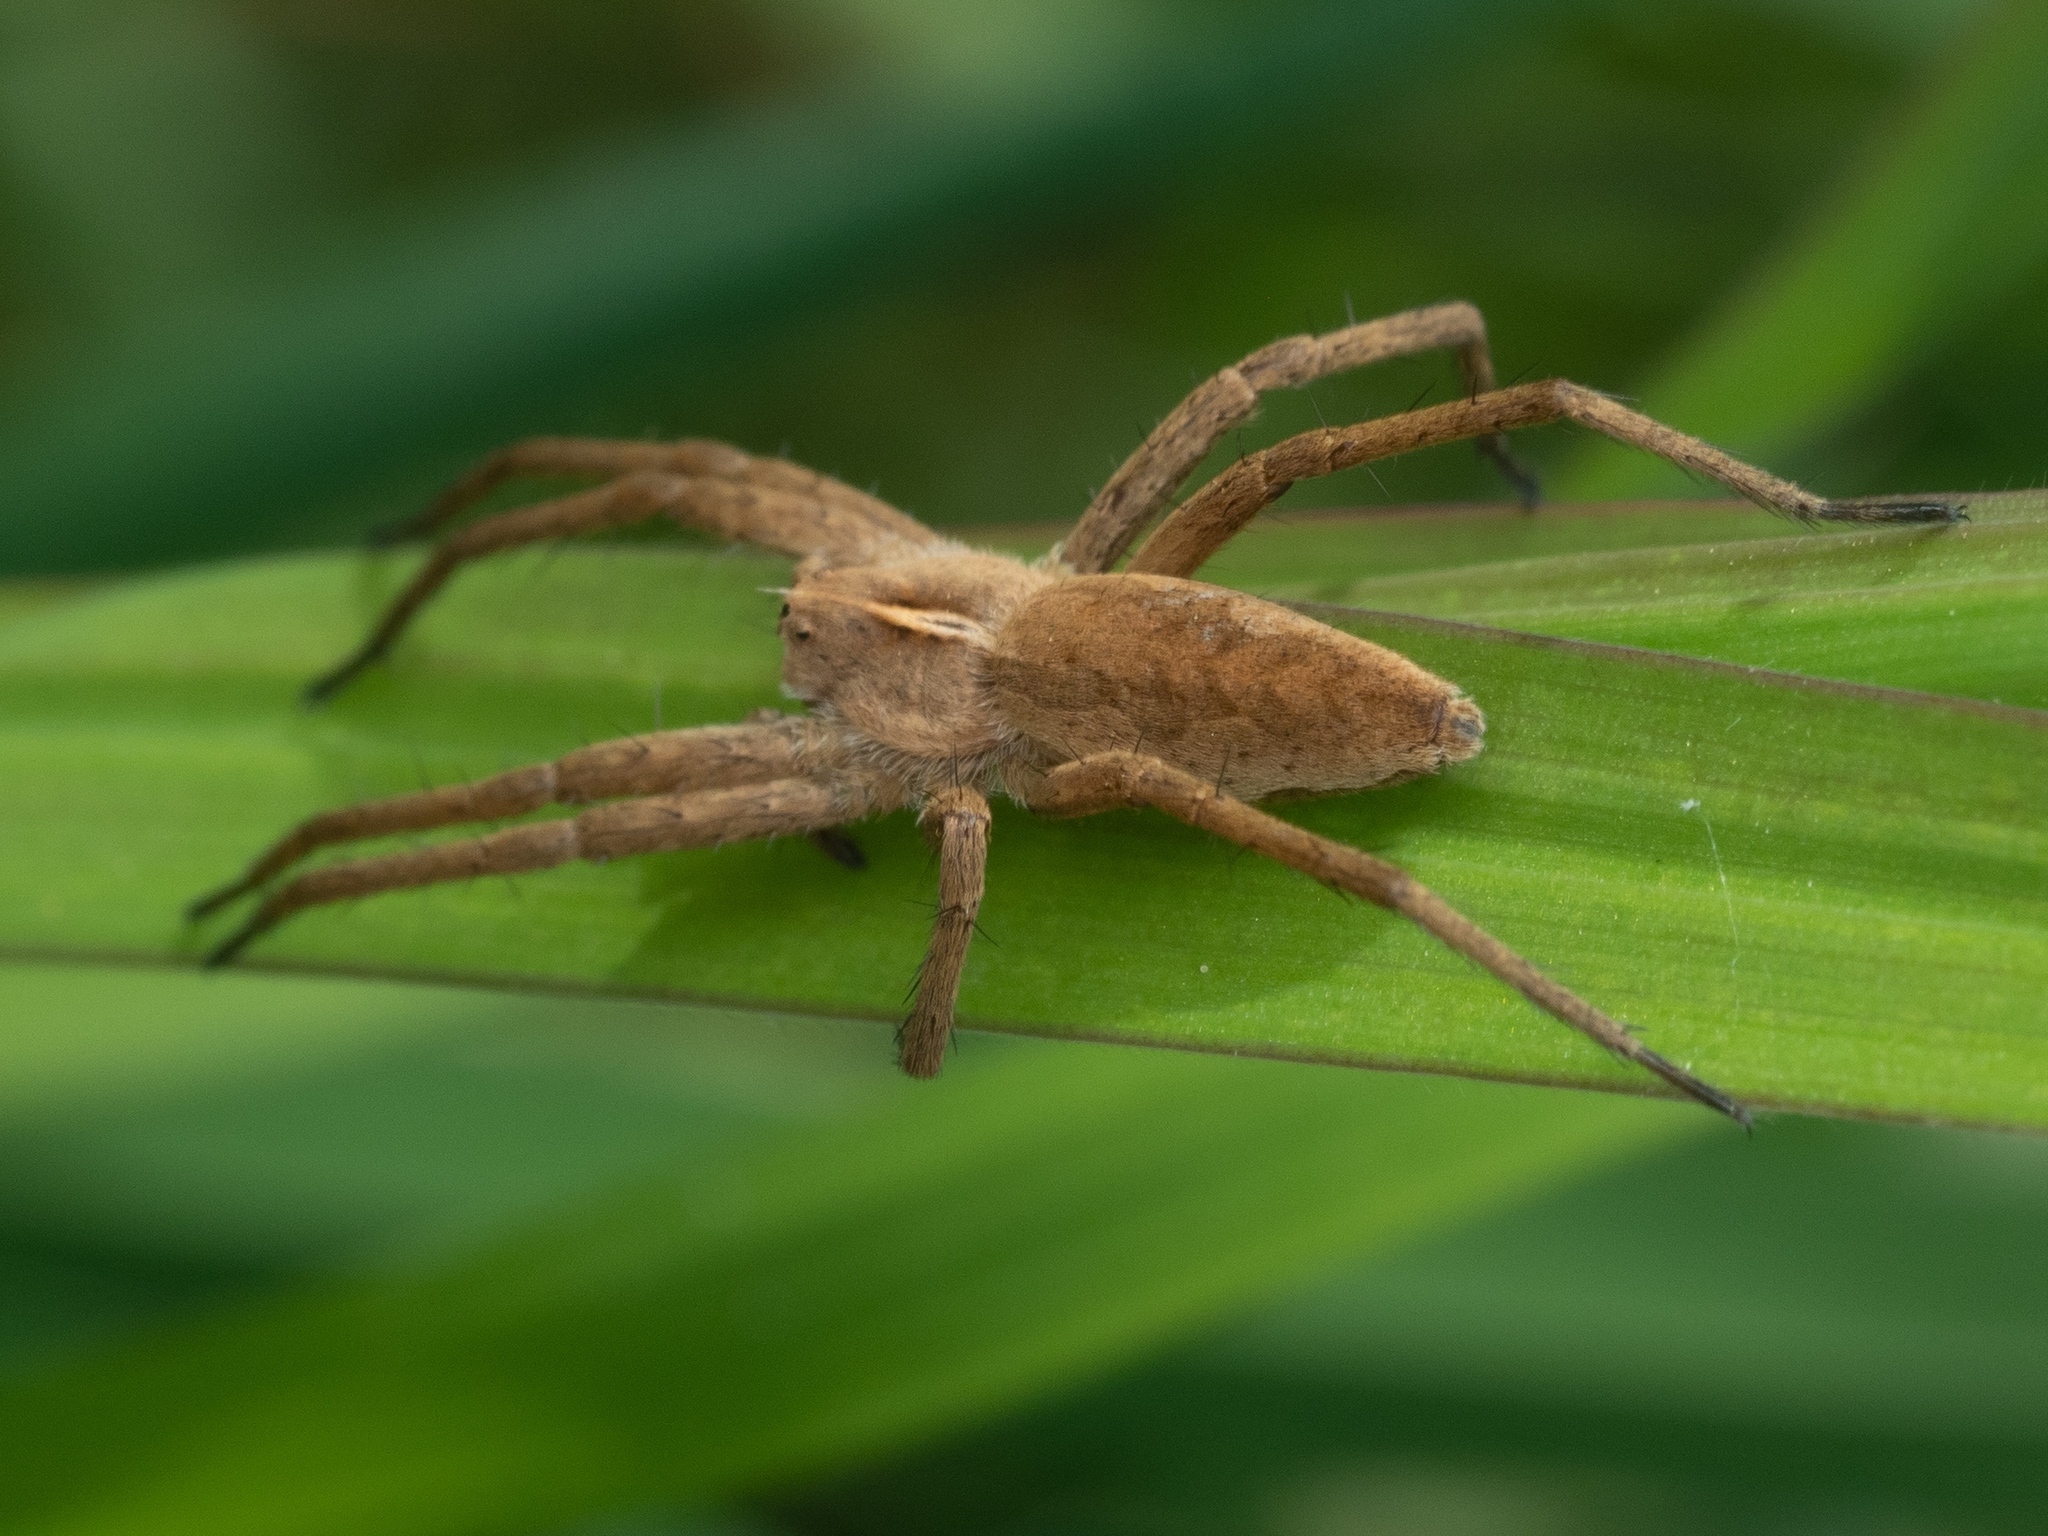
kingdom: Animalia
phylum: Arthropoda
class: Arachnida
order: Araneae
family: Pisauridae
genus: Pisaura
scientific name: Pisaura mirabilis
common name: Tent spider
